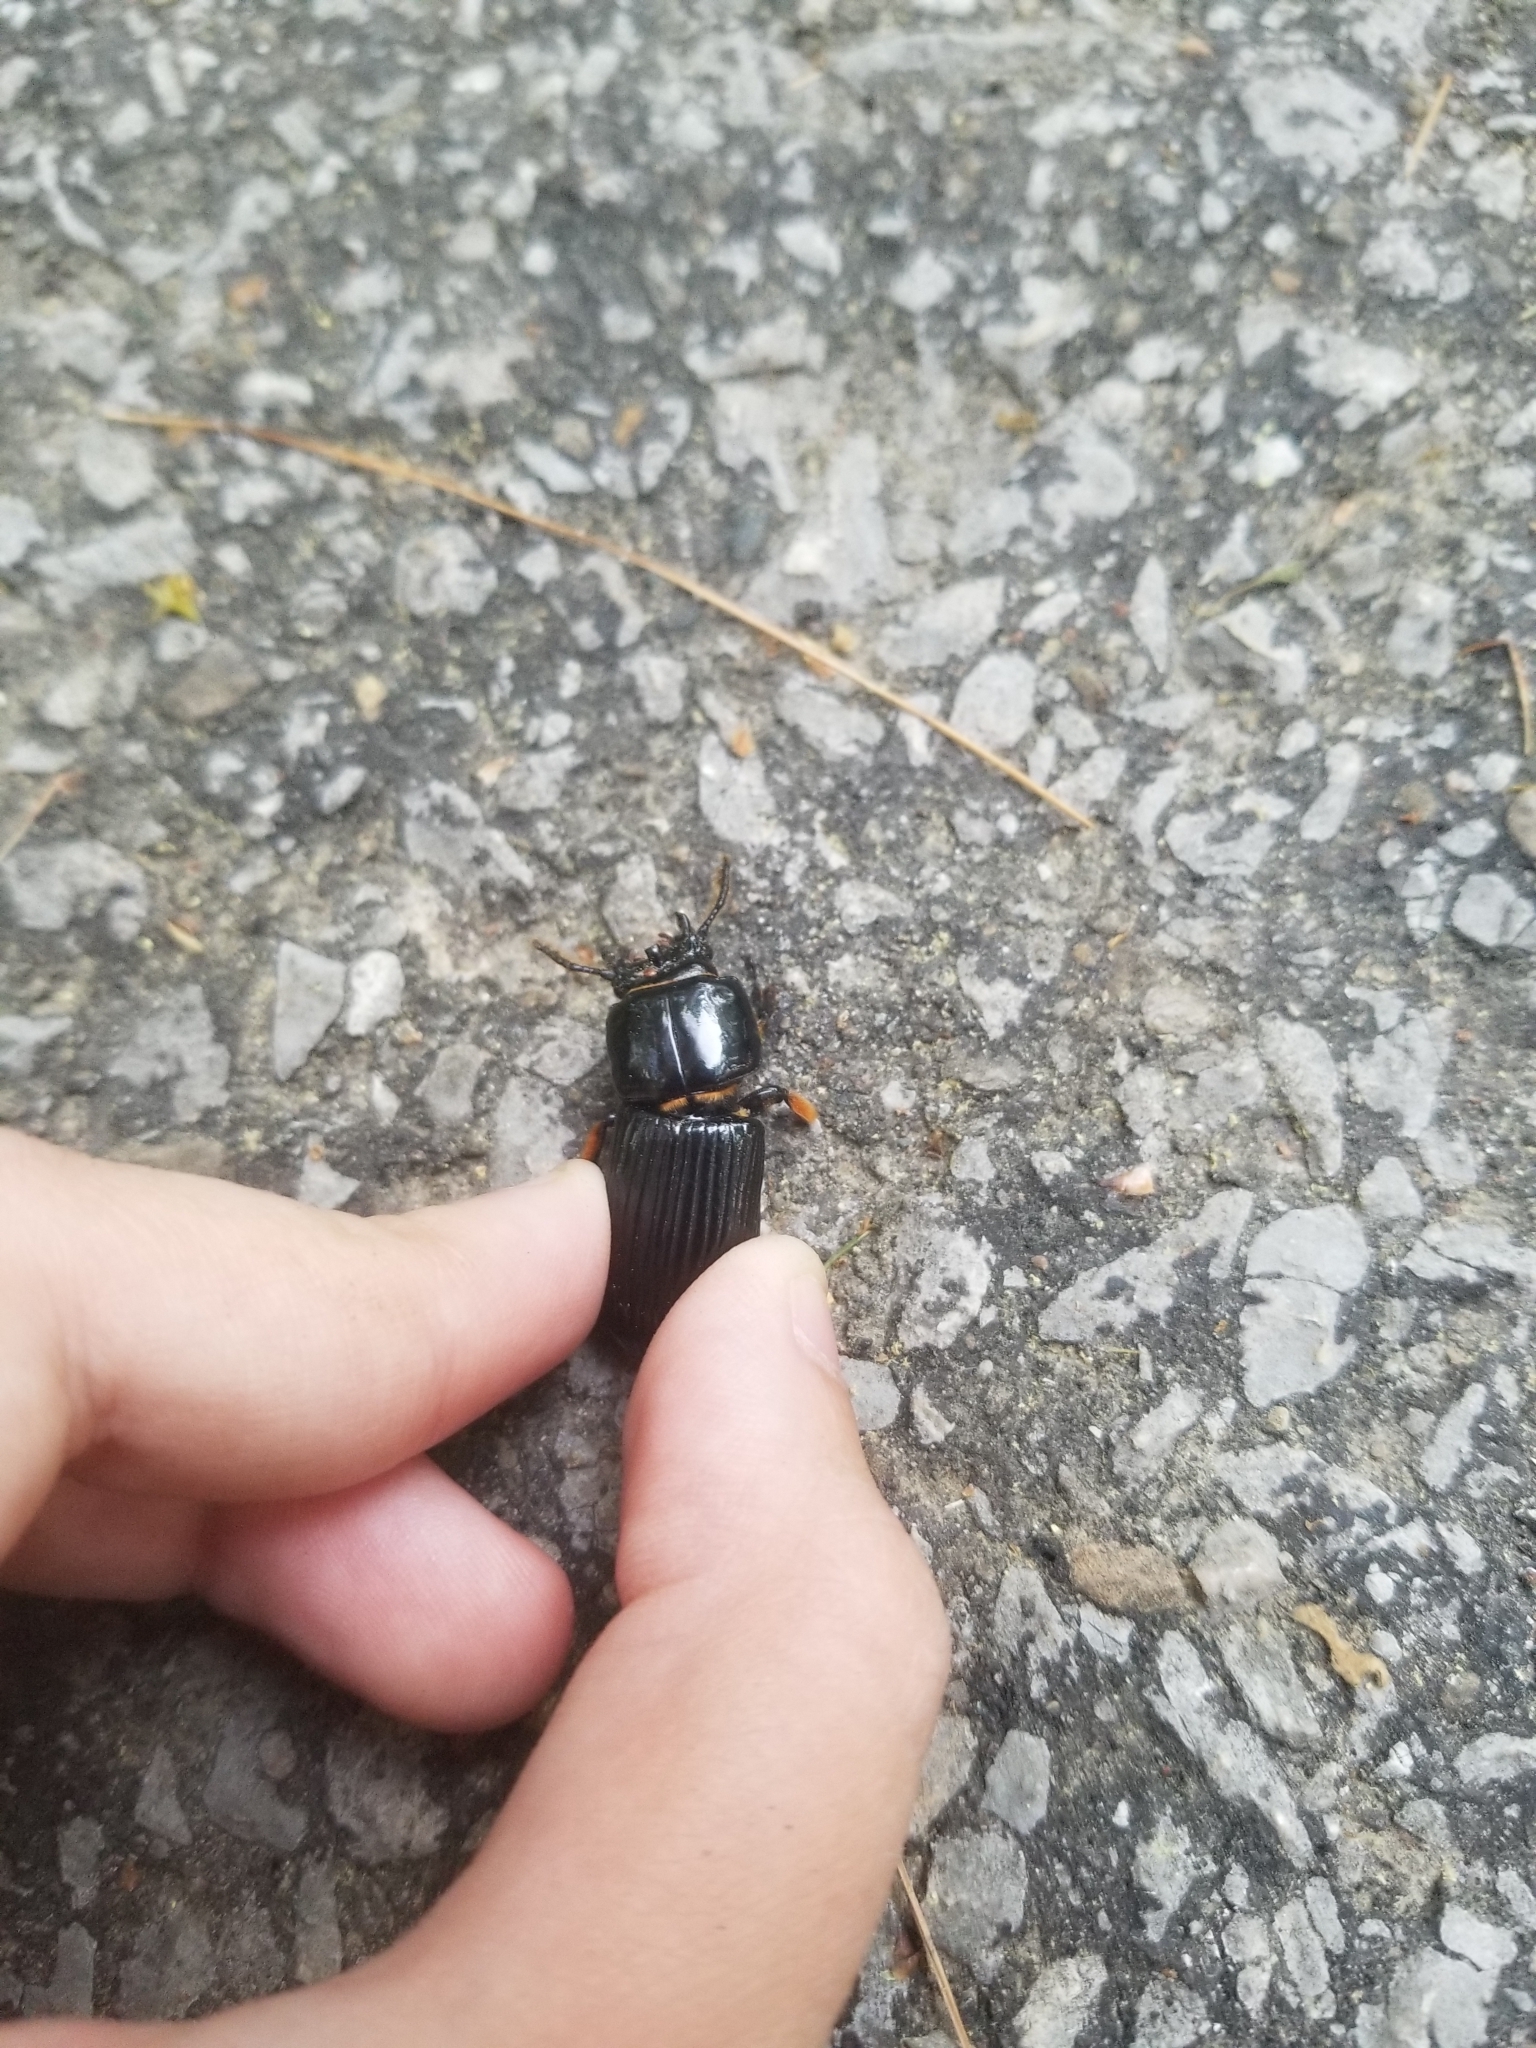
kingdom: Animalia
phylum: Arthropoda
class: Insecta
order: Coleoptera
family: Passalidae
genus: Odontotaenius
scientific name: Odontotaenius disjunctus
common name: Patent leather beetle
